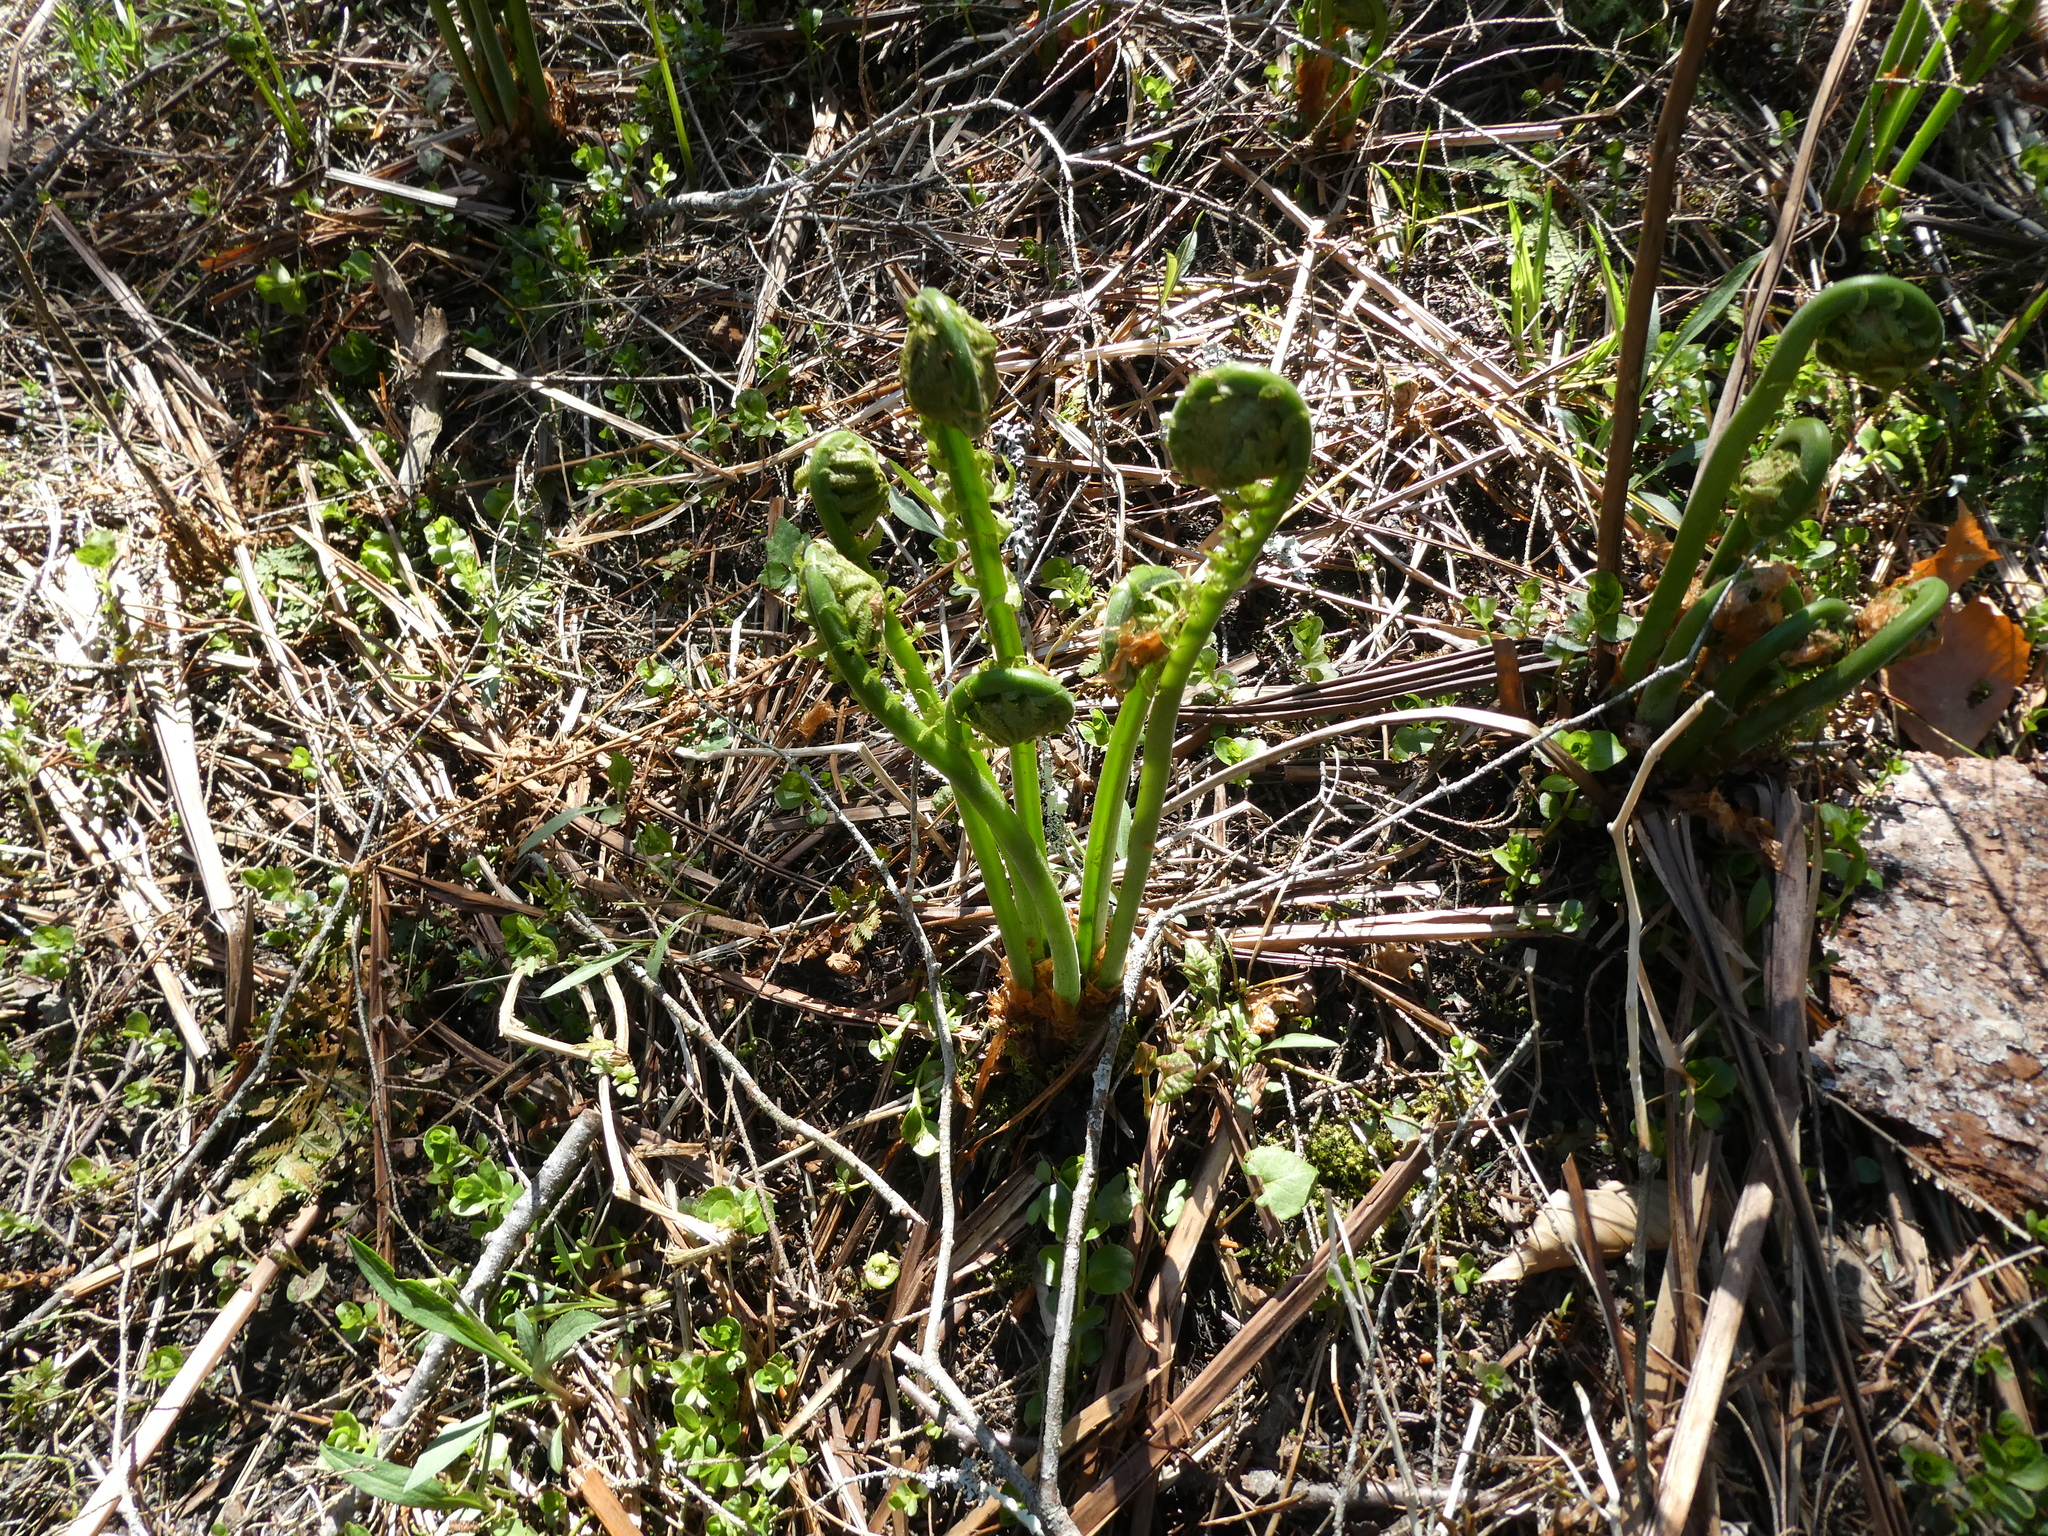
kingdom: Plantae
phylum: Tracheophyta
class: Polypodiopsida
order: Polypodiales
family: Onocleaceae
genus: Matteuccia
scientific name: Matteuccia struthiopteris
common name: Ostrich fern
